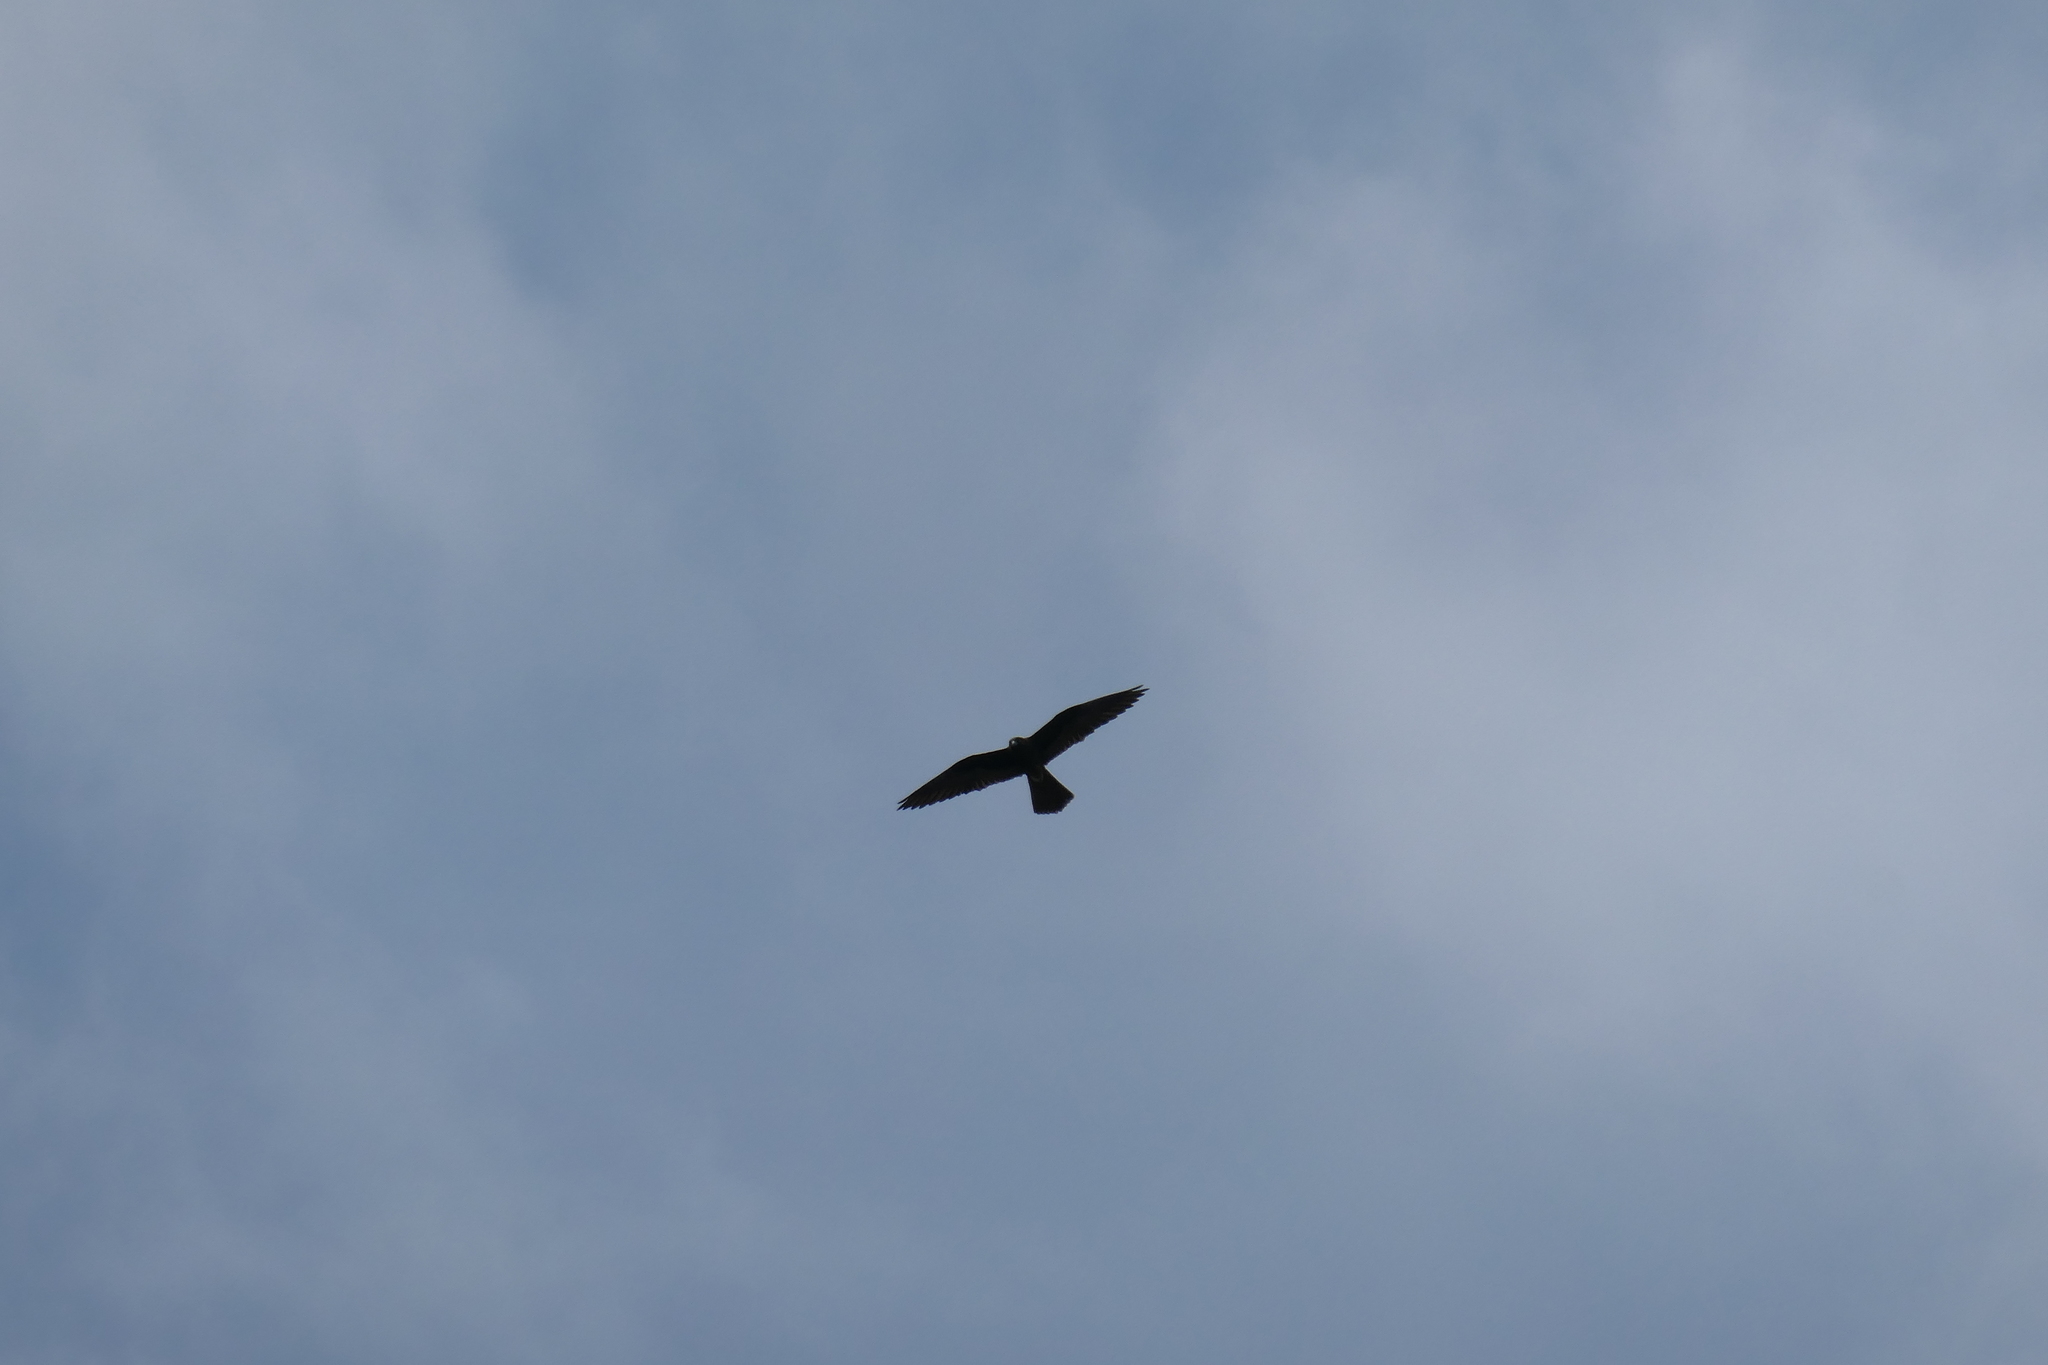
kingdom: Animalia
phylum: Chordata
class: Aves
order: Falconiformes
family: Falconidae
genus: Falco
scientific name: Falco eleonorae
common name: Eleonora's falcon
